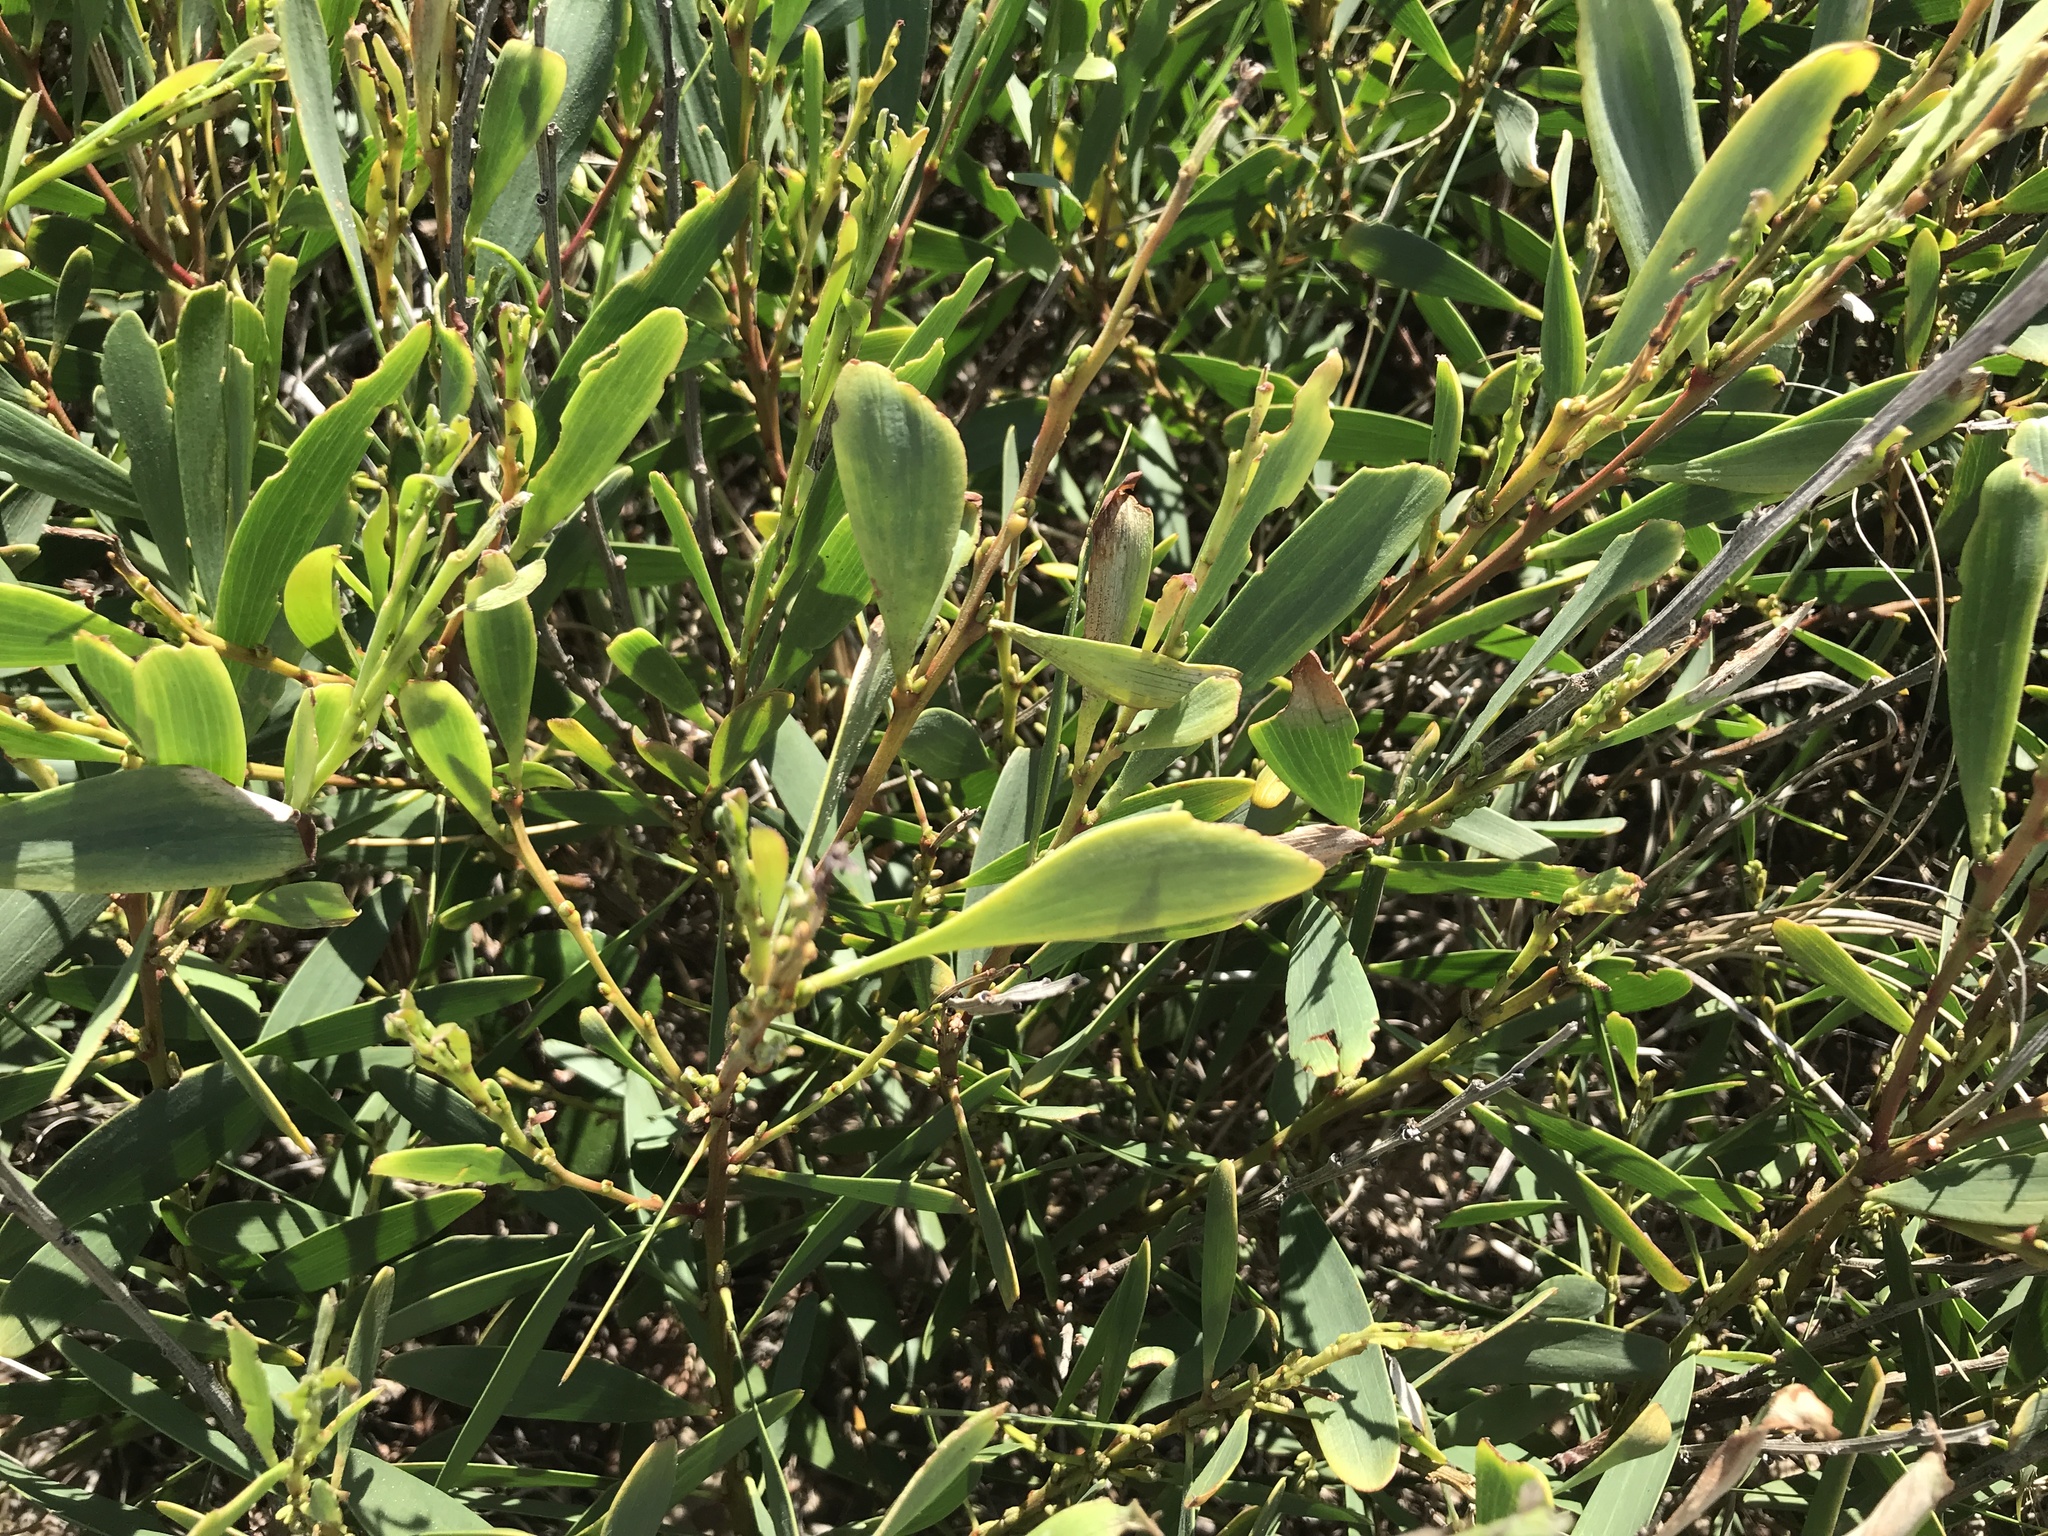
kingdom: Plantae
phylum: Tracheophyta
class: Magnoliopsida
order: Fabales
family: Fabaceae
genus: Acacia
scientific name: Acacia longifolia
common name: Sydney golden wattle
